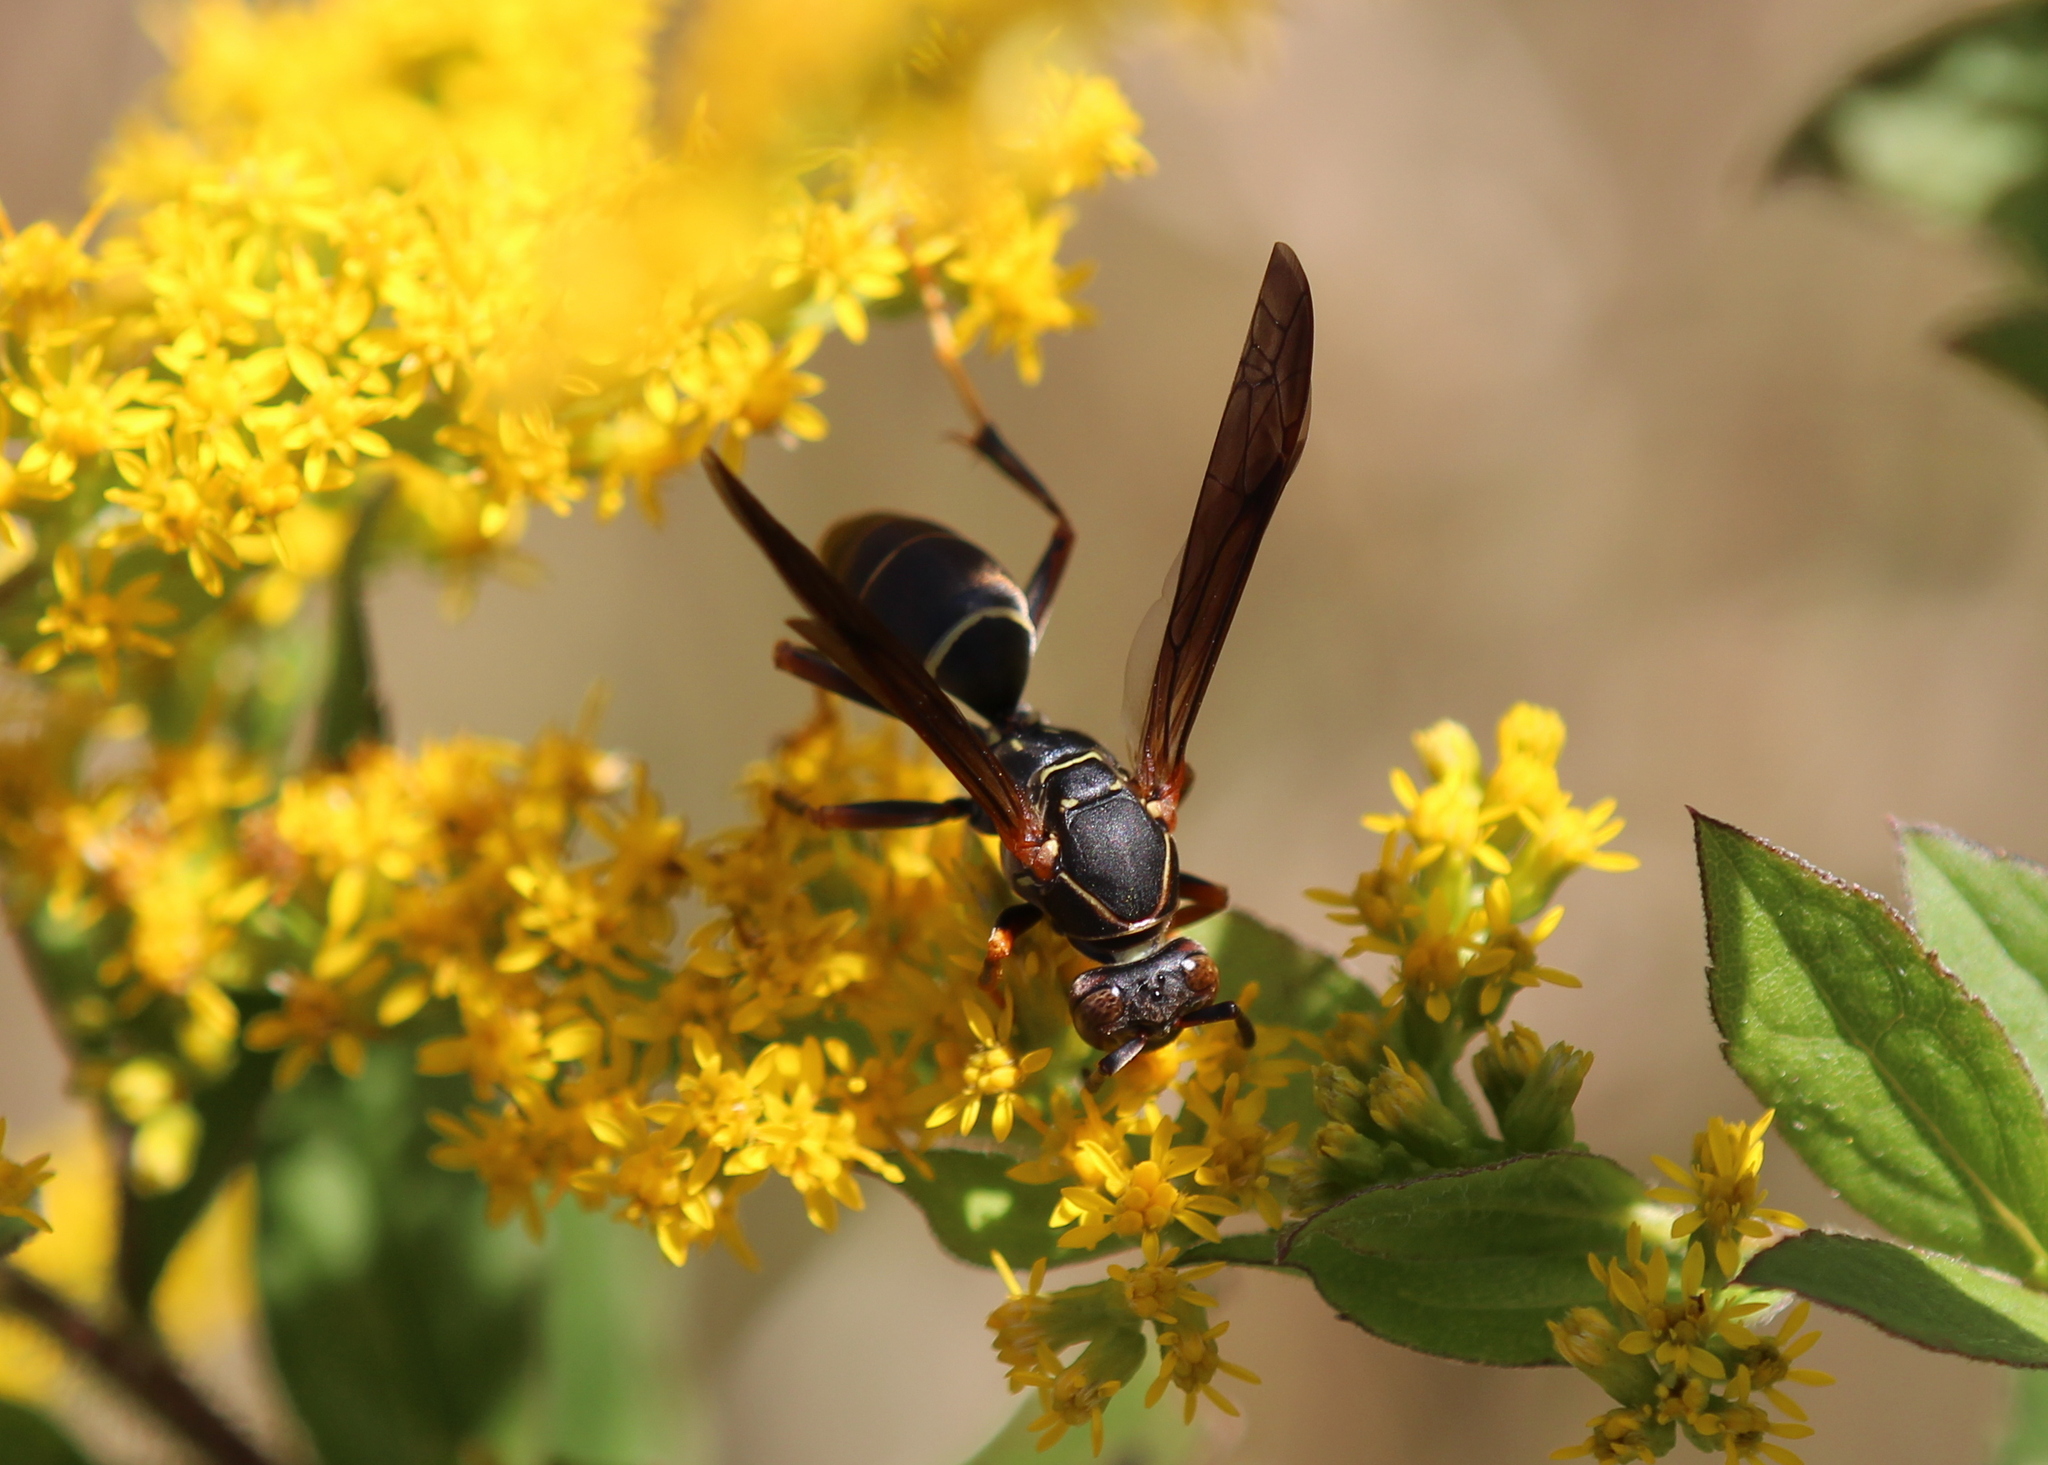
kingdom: Animalia
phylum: Arthropoda
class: Insecta
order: Hymenoptera
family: Eumenidae
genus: Polistes
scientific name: Polistes fuscatus
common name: Dark paper wasp
